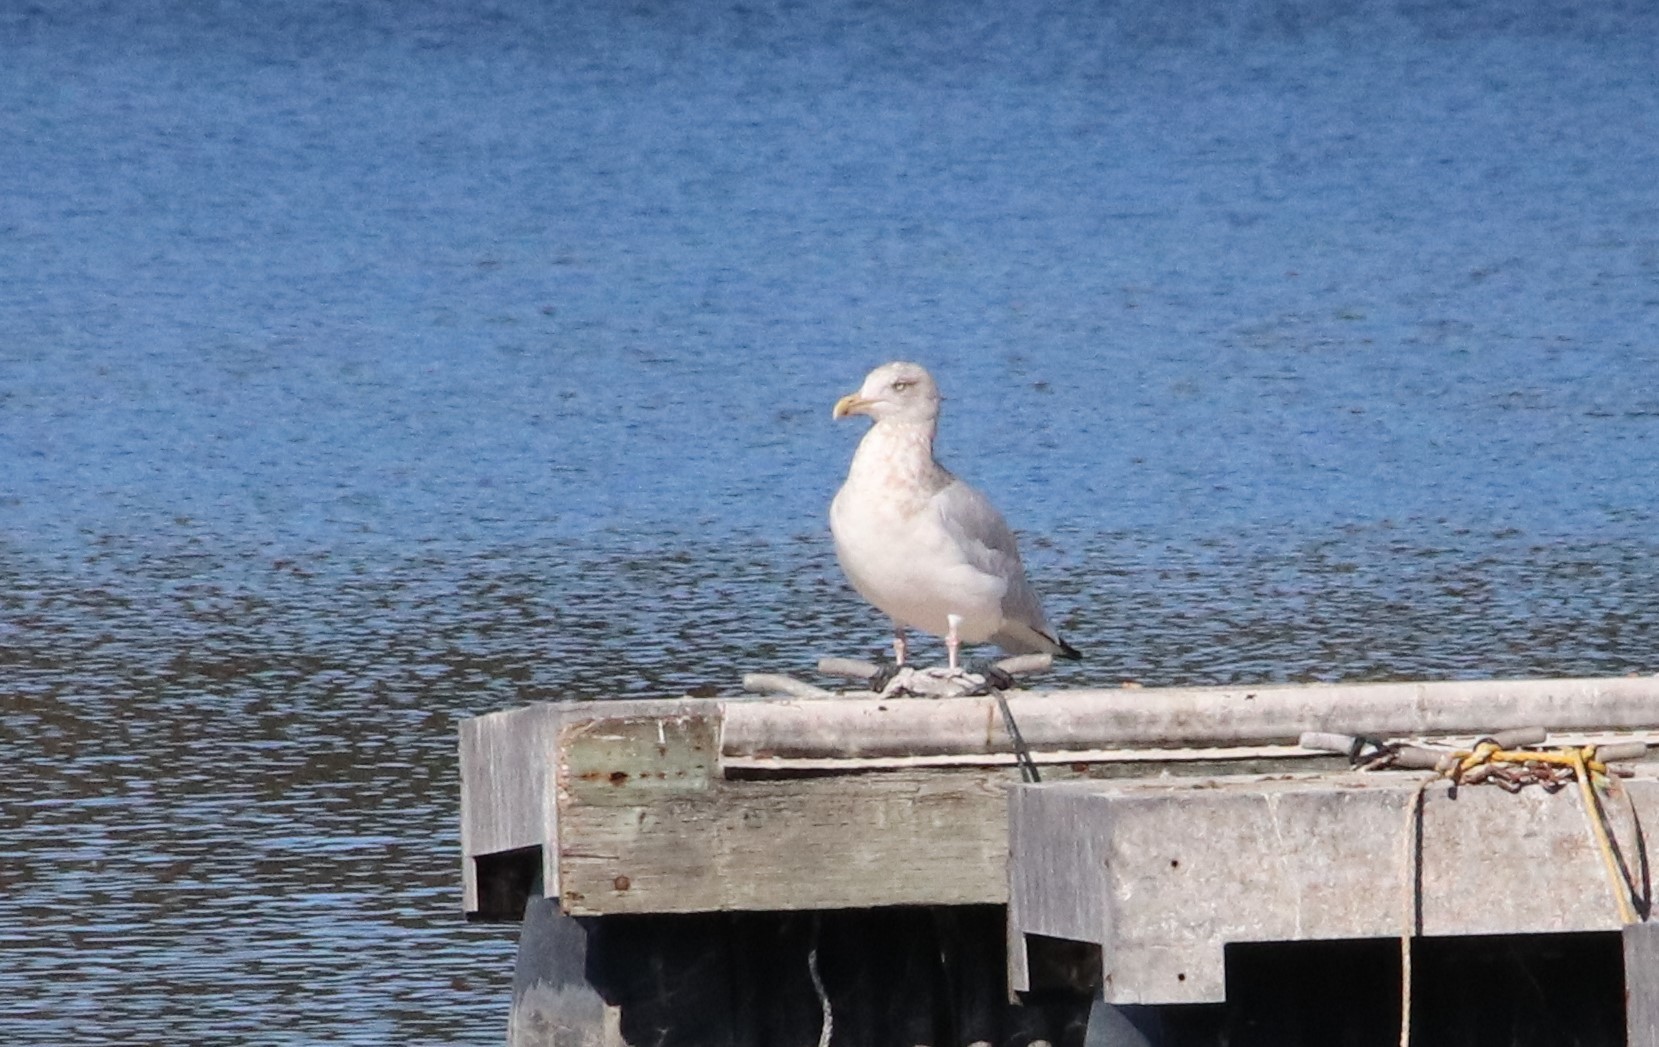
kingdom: Animalia
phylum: Chordata
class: Aves
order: Charadriiformes
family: Laridae
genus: Larus
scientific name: Larus argentatus
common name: Herring gull
